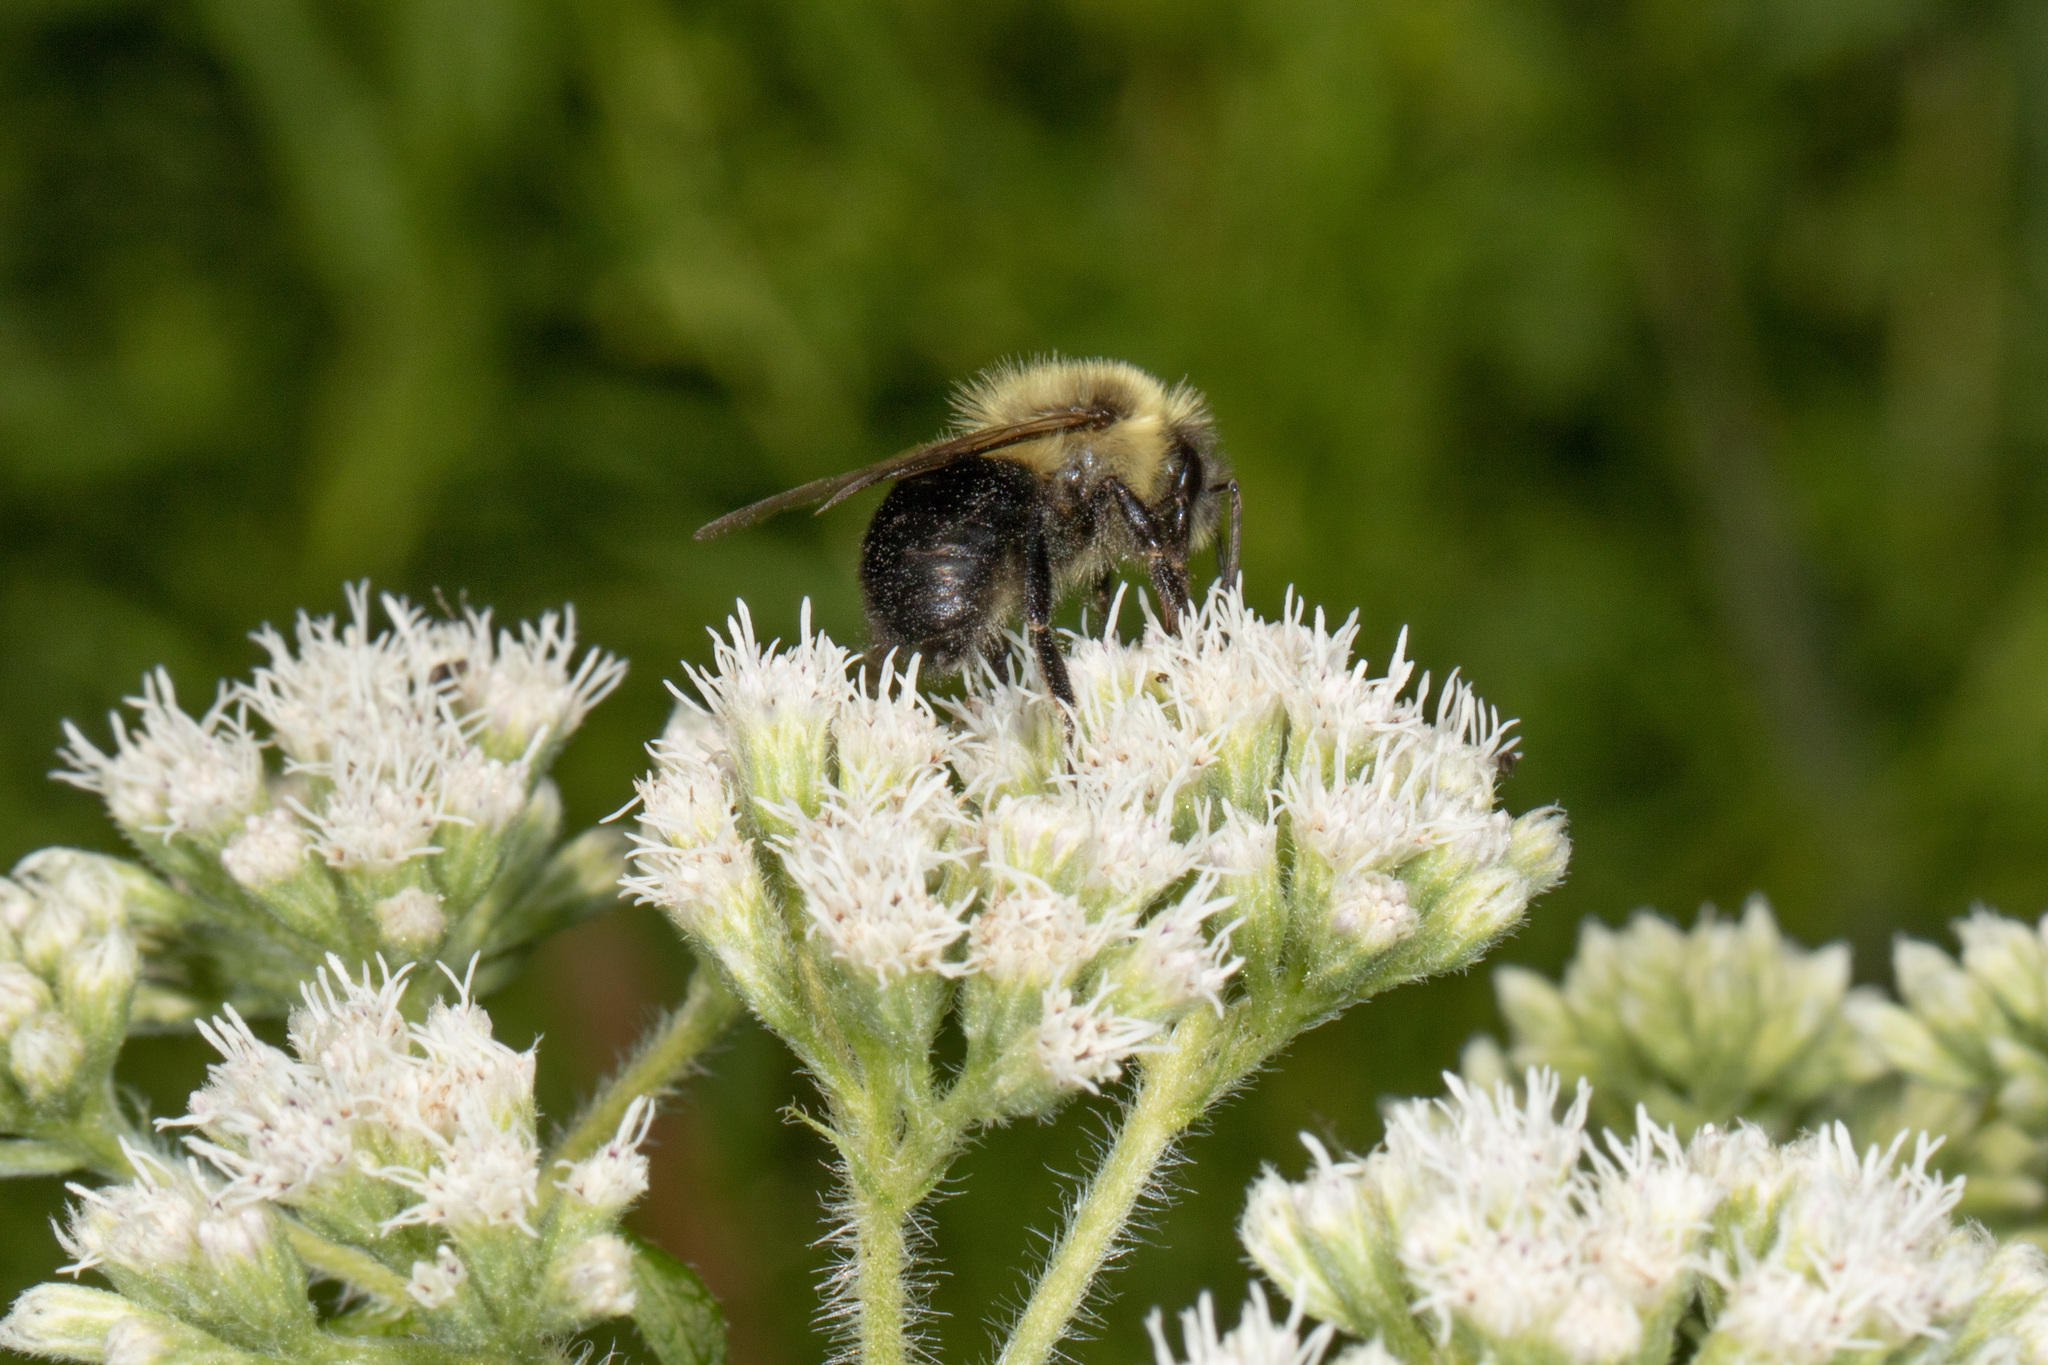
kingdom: Animalia
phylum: Arthropoda
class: Insecta
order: Hymenoptera
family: Apidae
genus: Bombus
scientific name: Bombus impatiens
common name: Common eastern bumble bee
